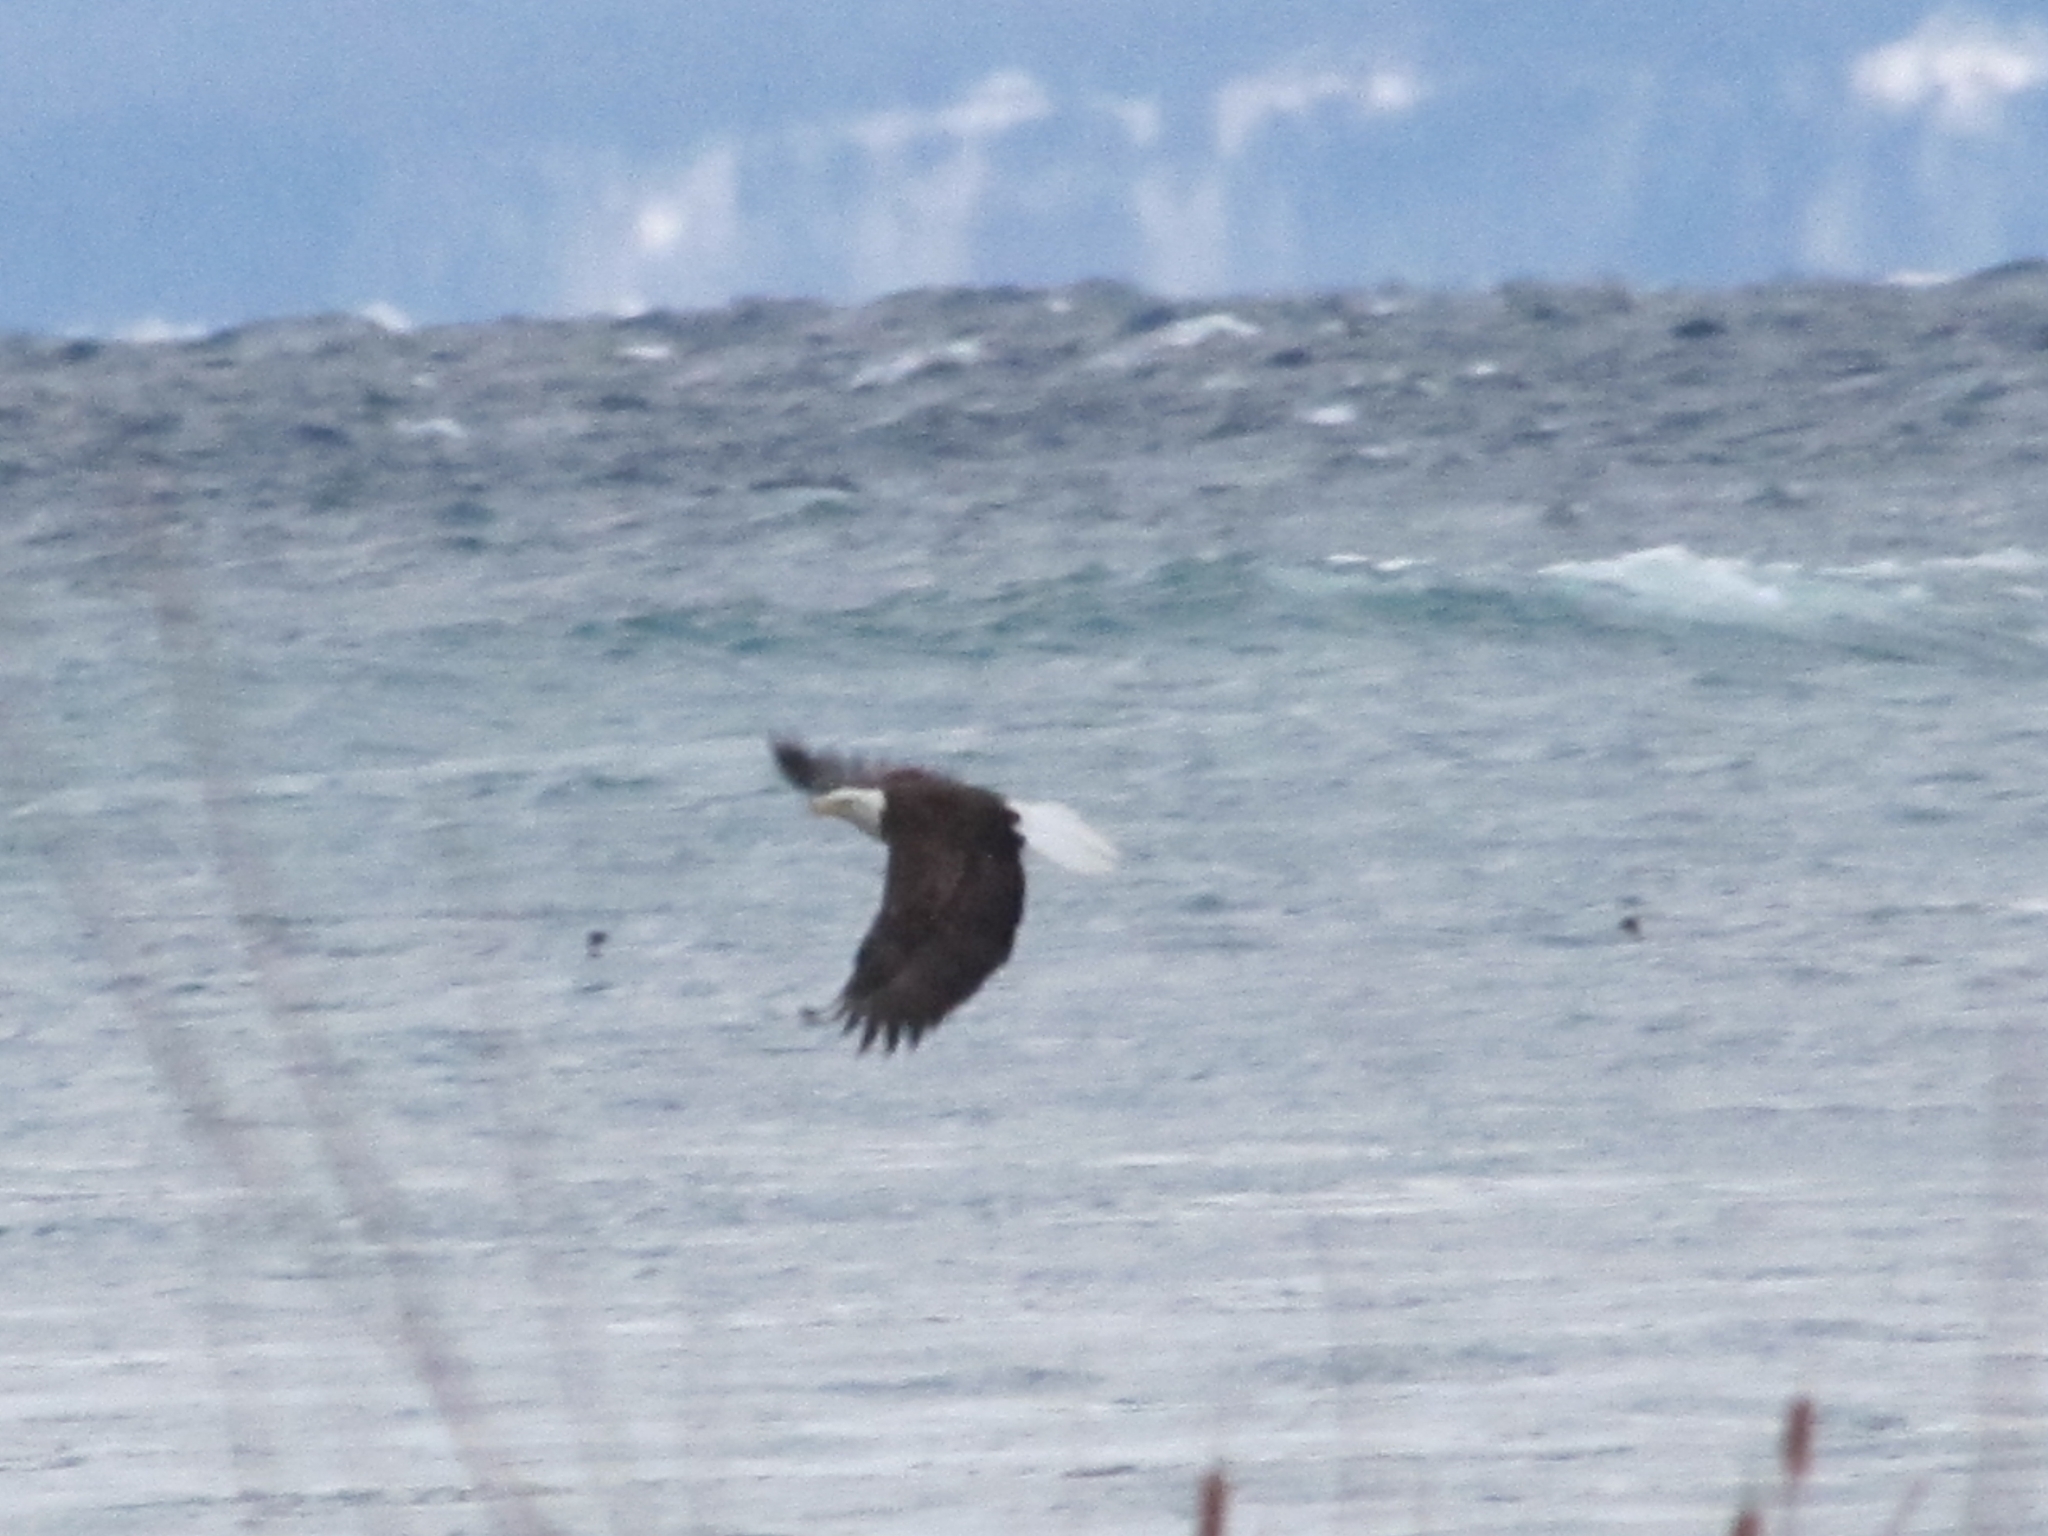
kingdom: Animalia
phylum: Chordata
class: Aves
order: Accipitriformes
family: Accipitridae
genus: Haliaeetus
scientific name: Haliaeetus leucocephalus
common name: Bald eagle
